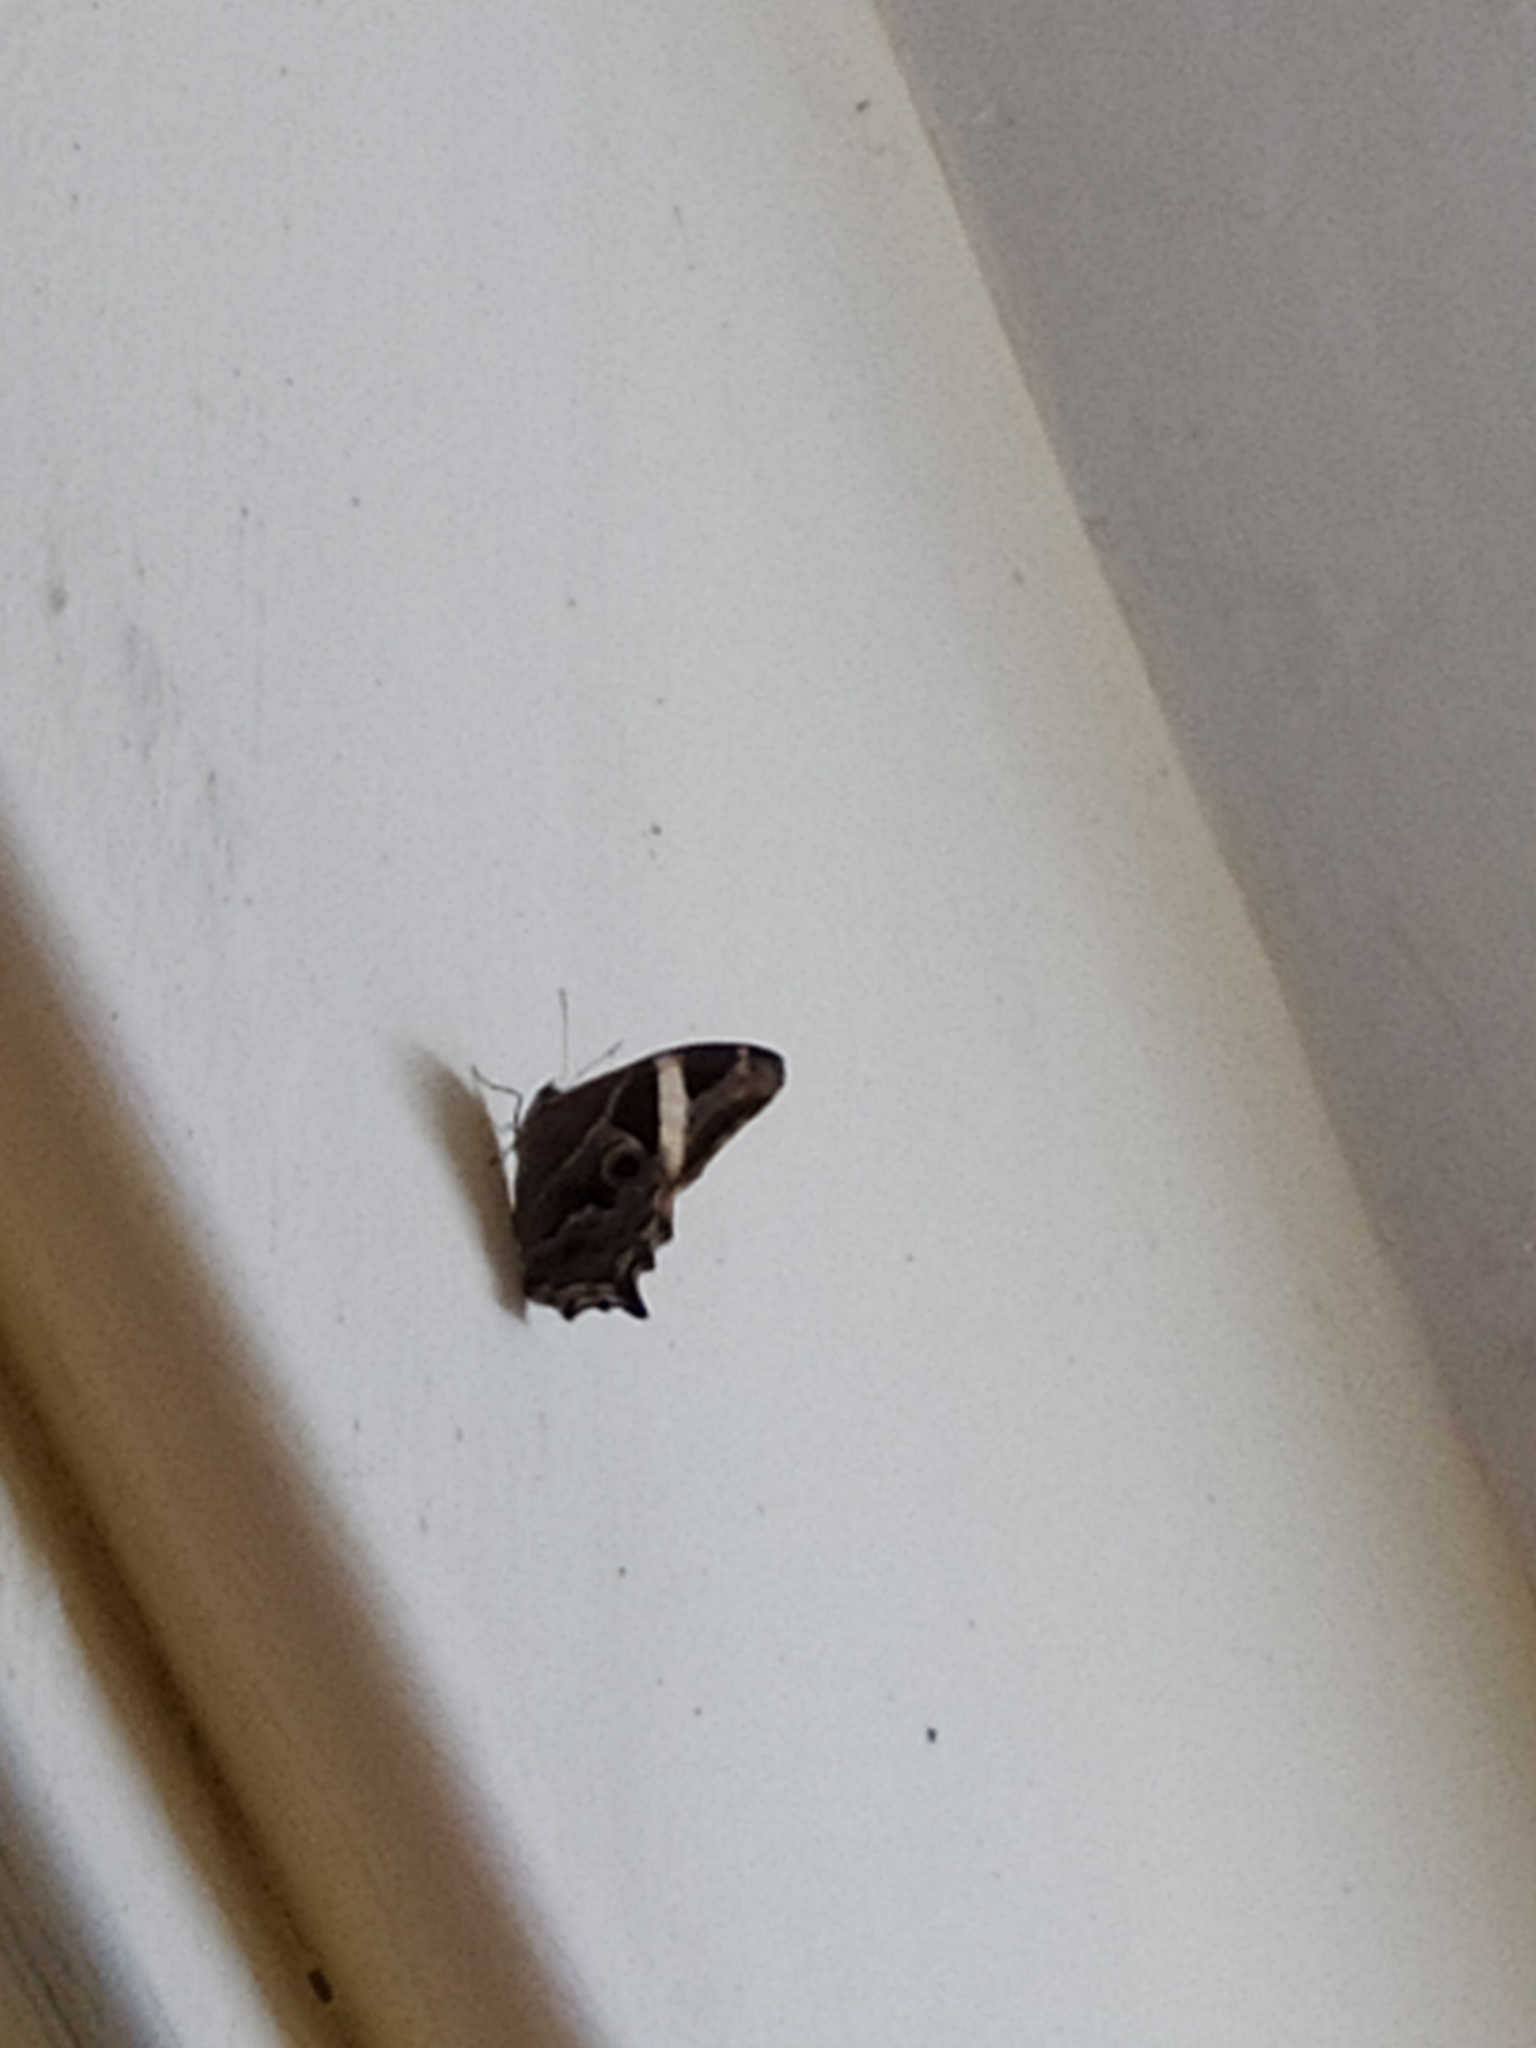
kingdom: Animalia
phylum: Arthropoda
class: Insecta
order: Lepidoptera
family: Nymphalidae
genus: Lethe
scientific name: Lethe europa
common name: Bamboo treebrown
